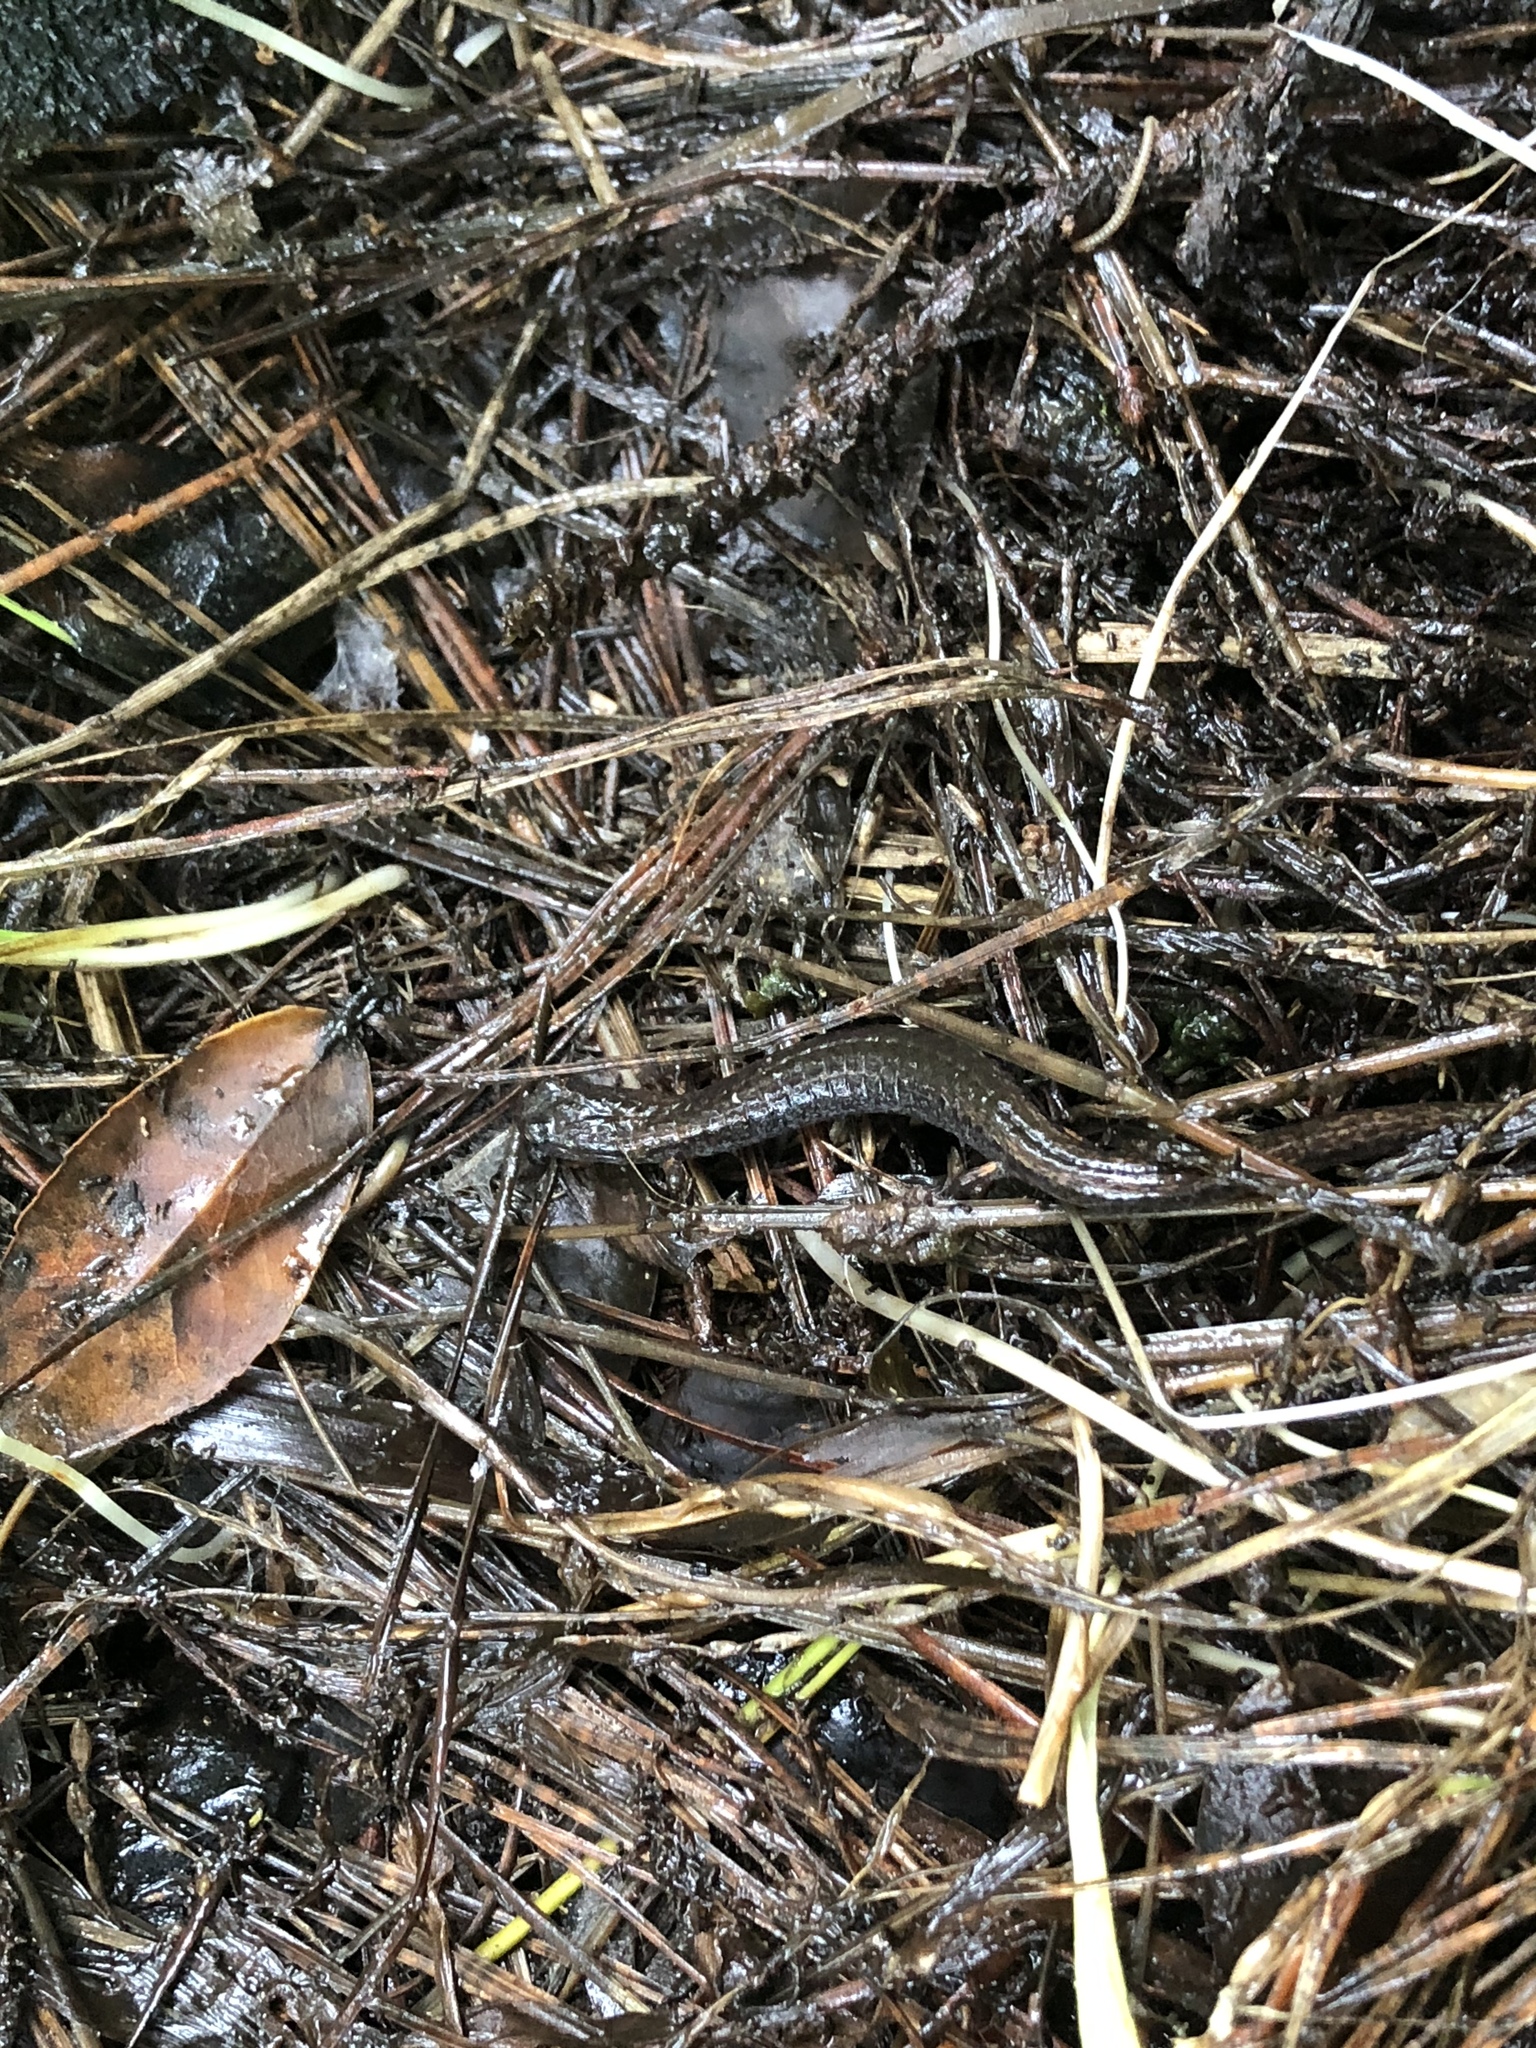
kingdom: Animalia
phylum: Chordata
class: Amphibia
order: Caudata
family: Plethodontidae
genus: Batrachoseps
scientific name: Batrachoseps attenuatus
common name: California slender salamander
